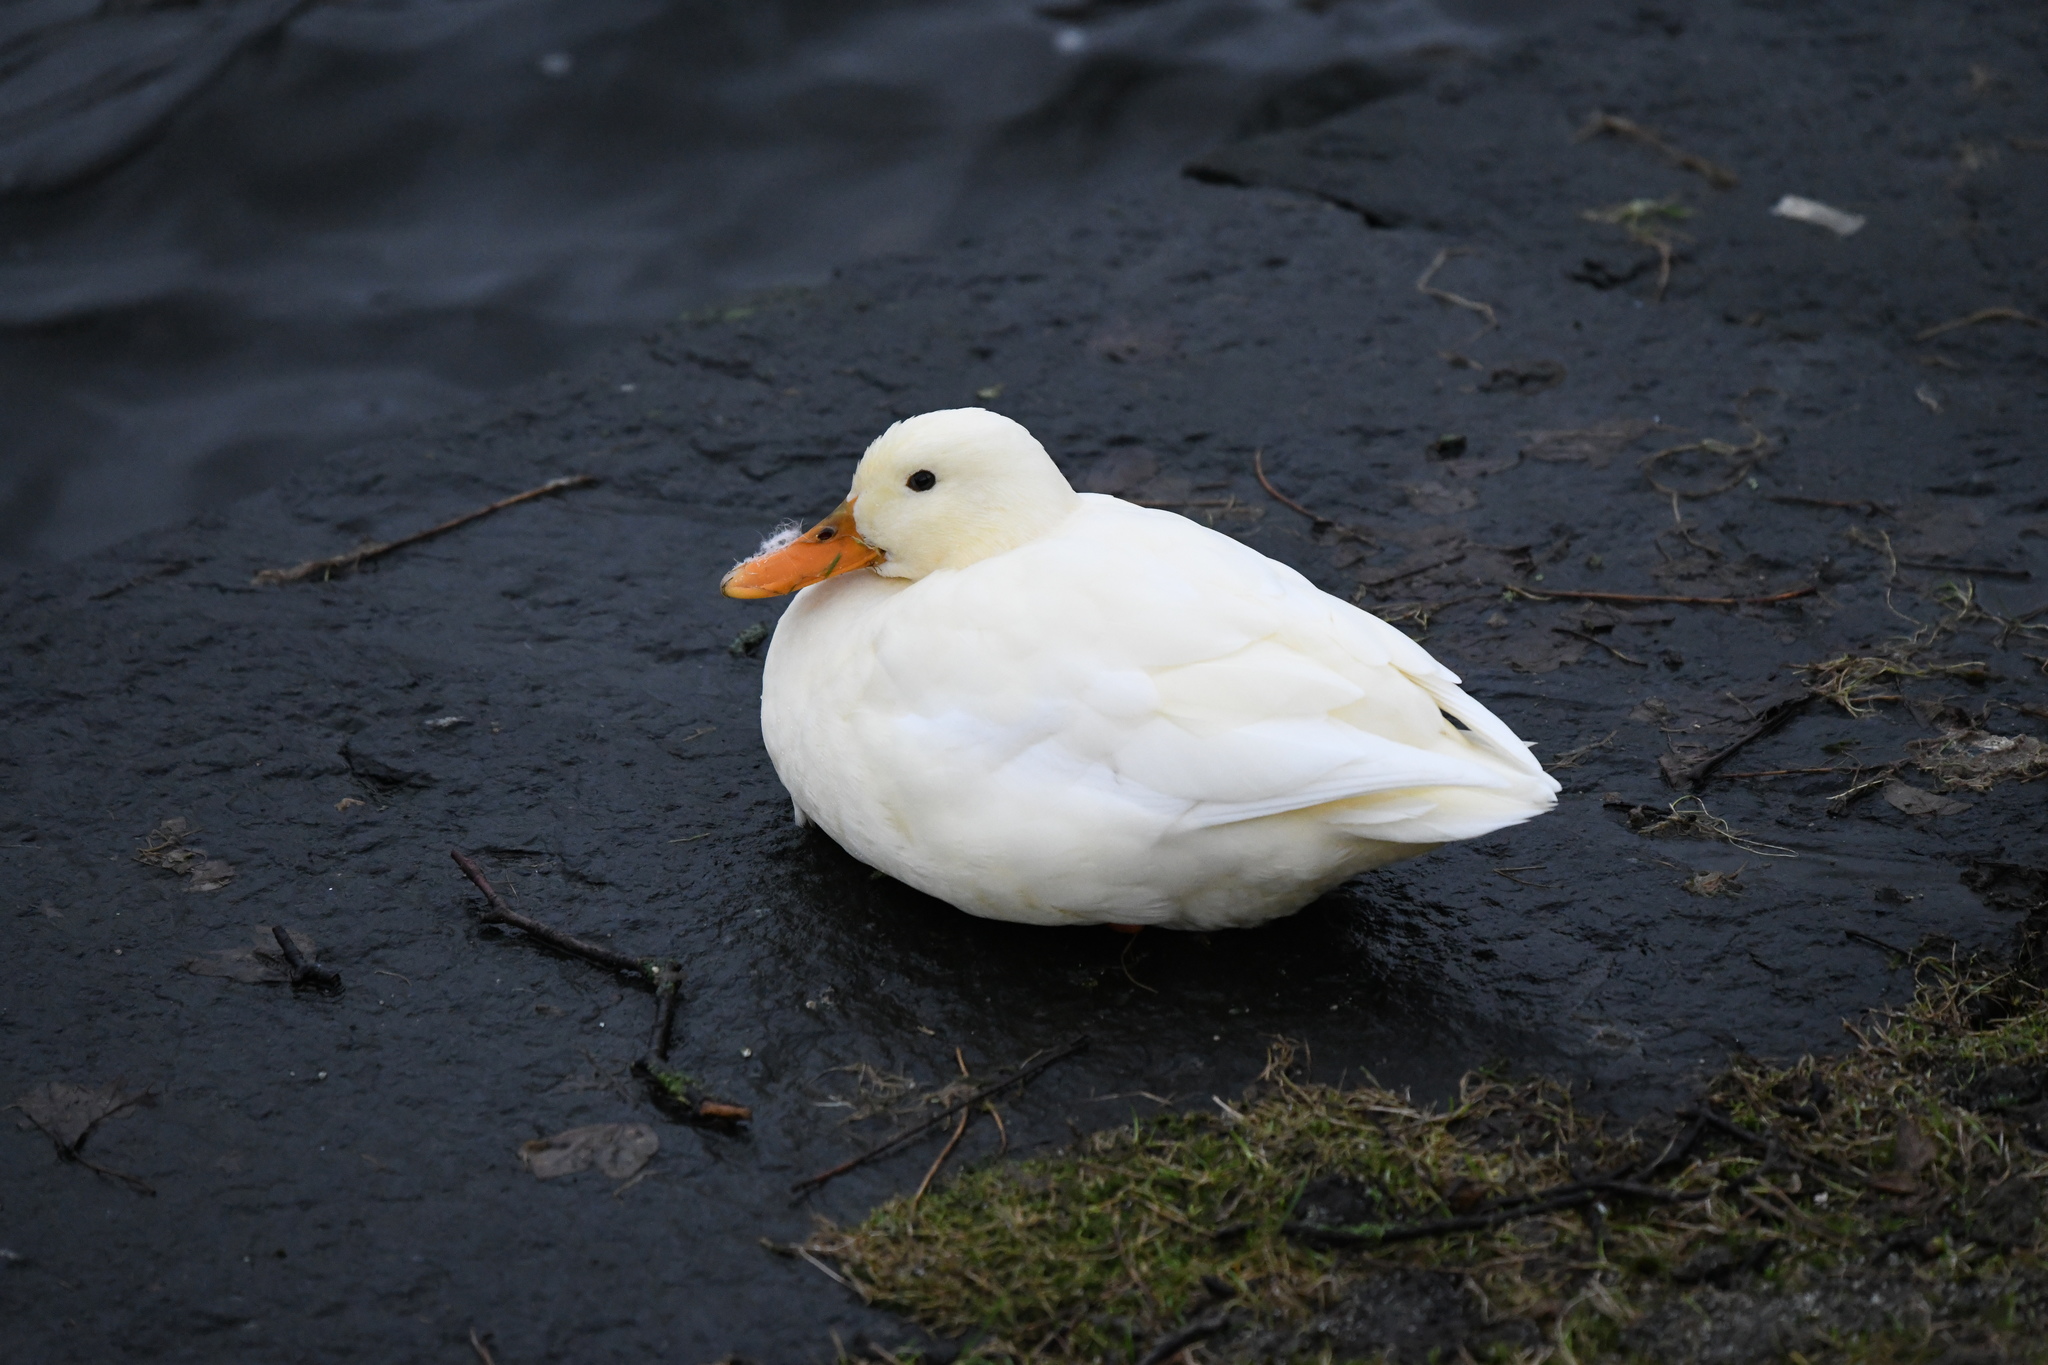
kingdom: Animalia
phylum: Chordata
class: Aves
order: Anseriformes
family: Anatidae
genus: Anas
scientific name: Anas platyrhynchos
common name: Mallard
